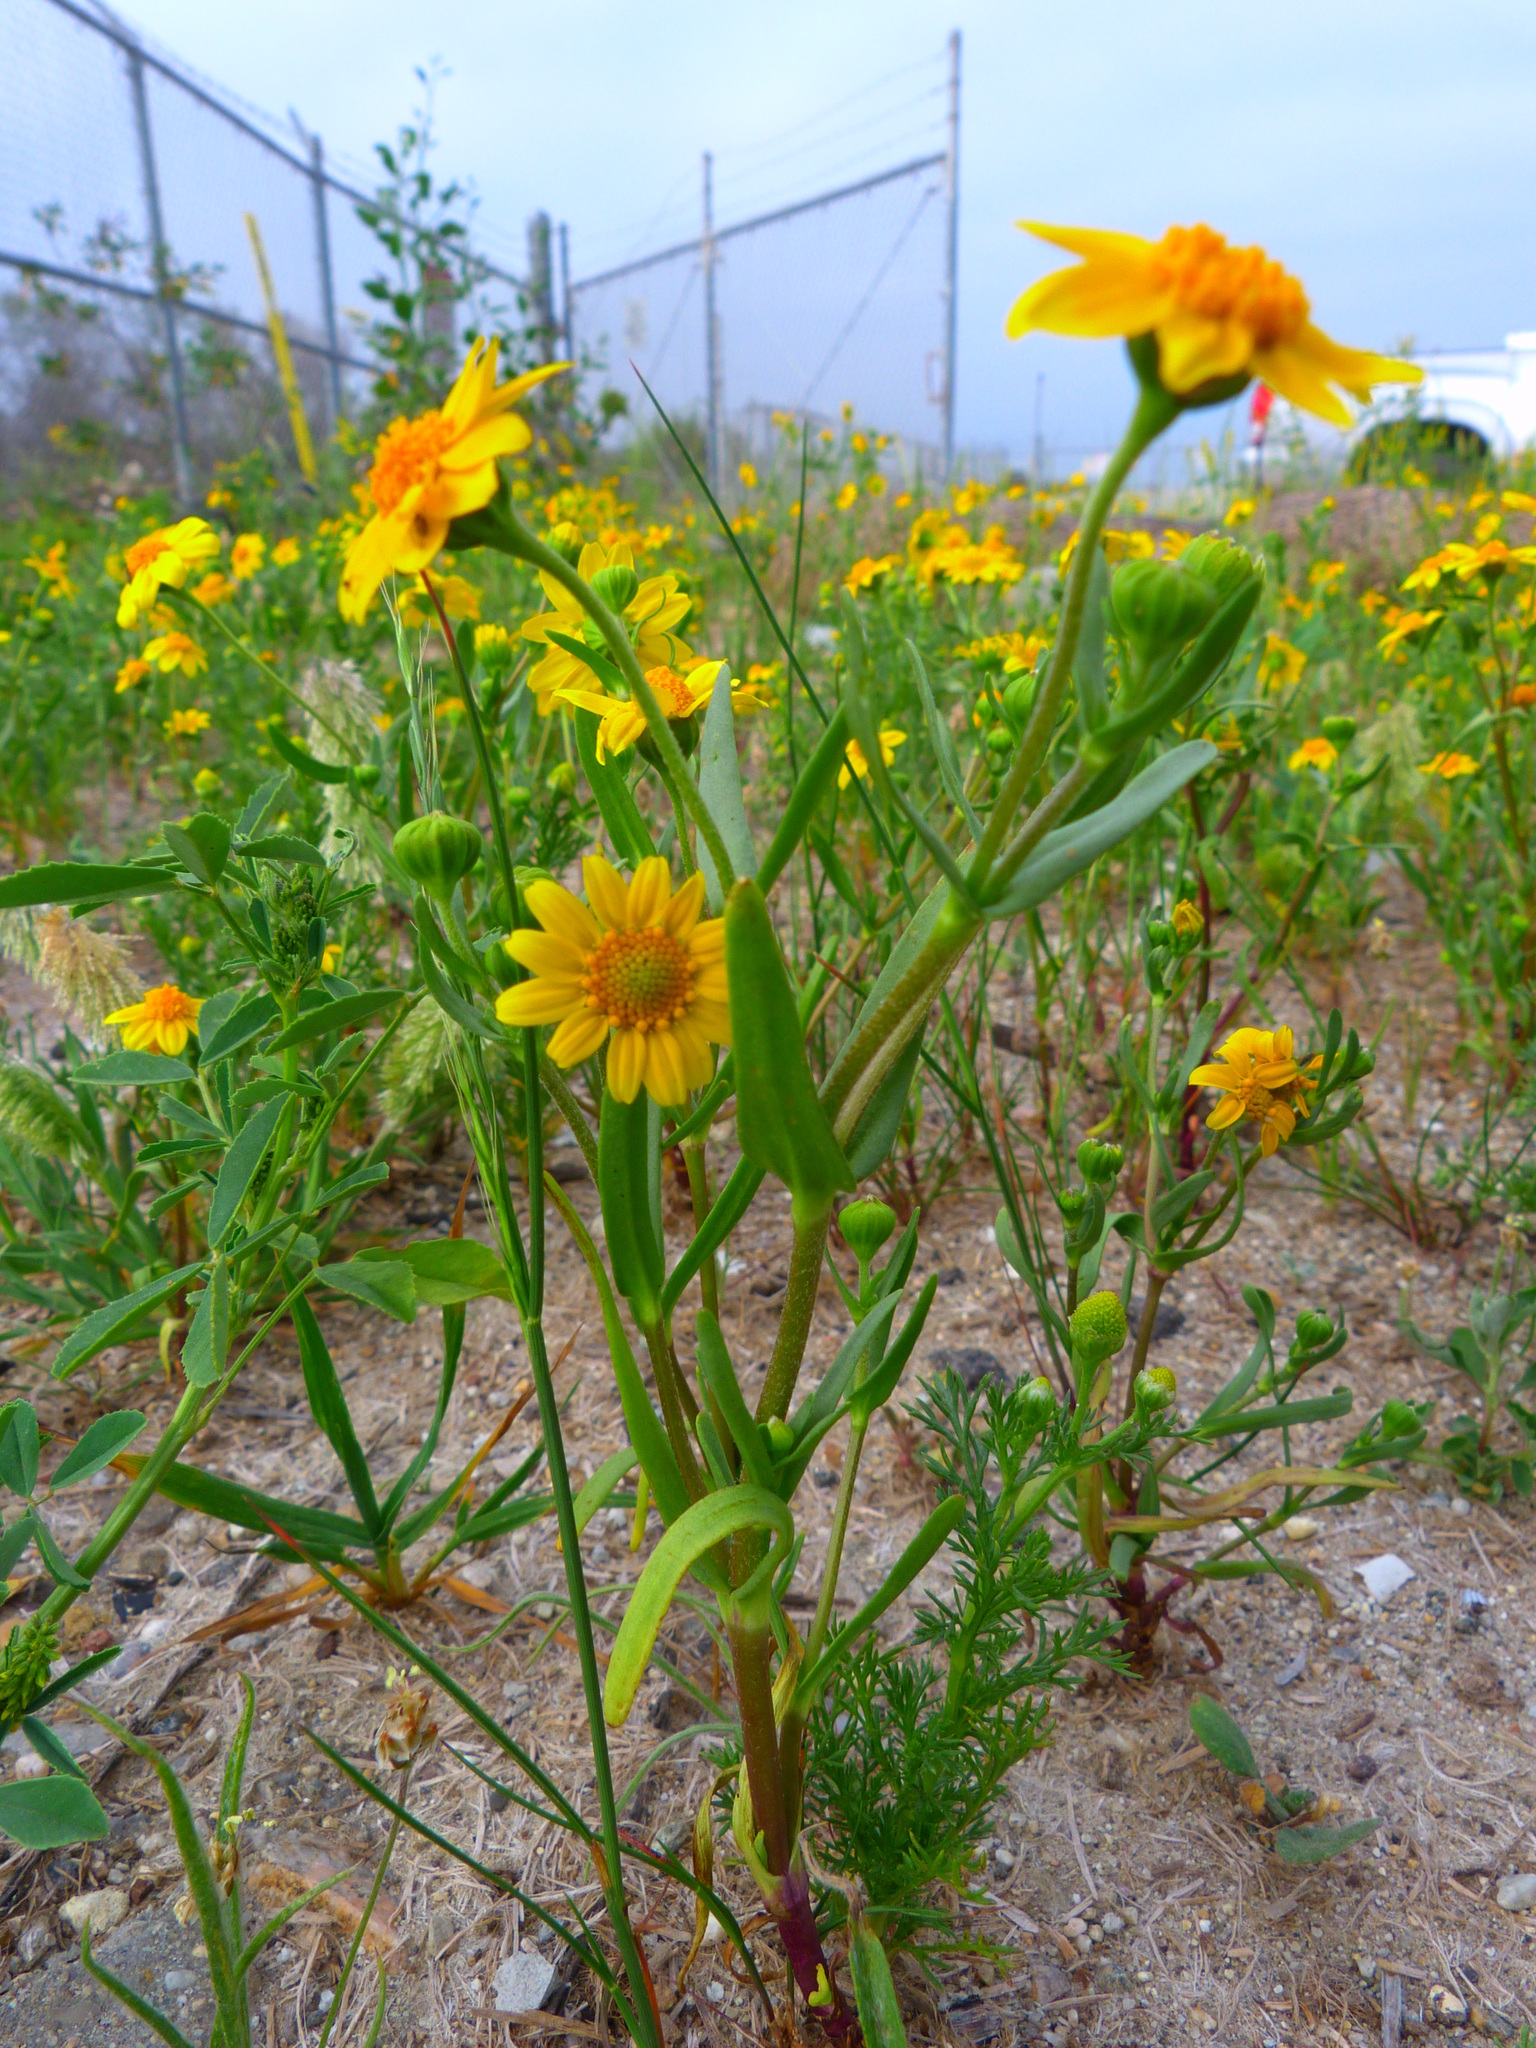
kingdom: Plantae
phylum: Tracheophyta
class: Magnoliopsida
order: Asterales
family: Asteraceae
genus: Lasthenia
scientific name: Lasthenia glabrata
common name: Yellow-ray lasthenia
